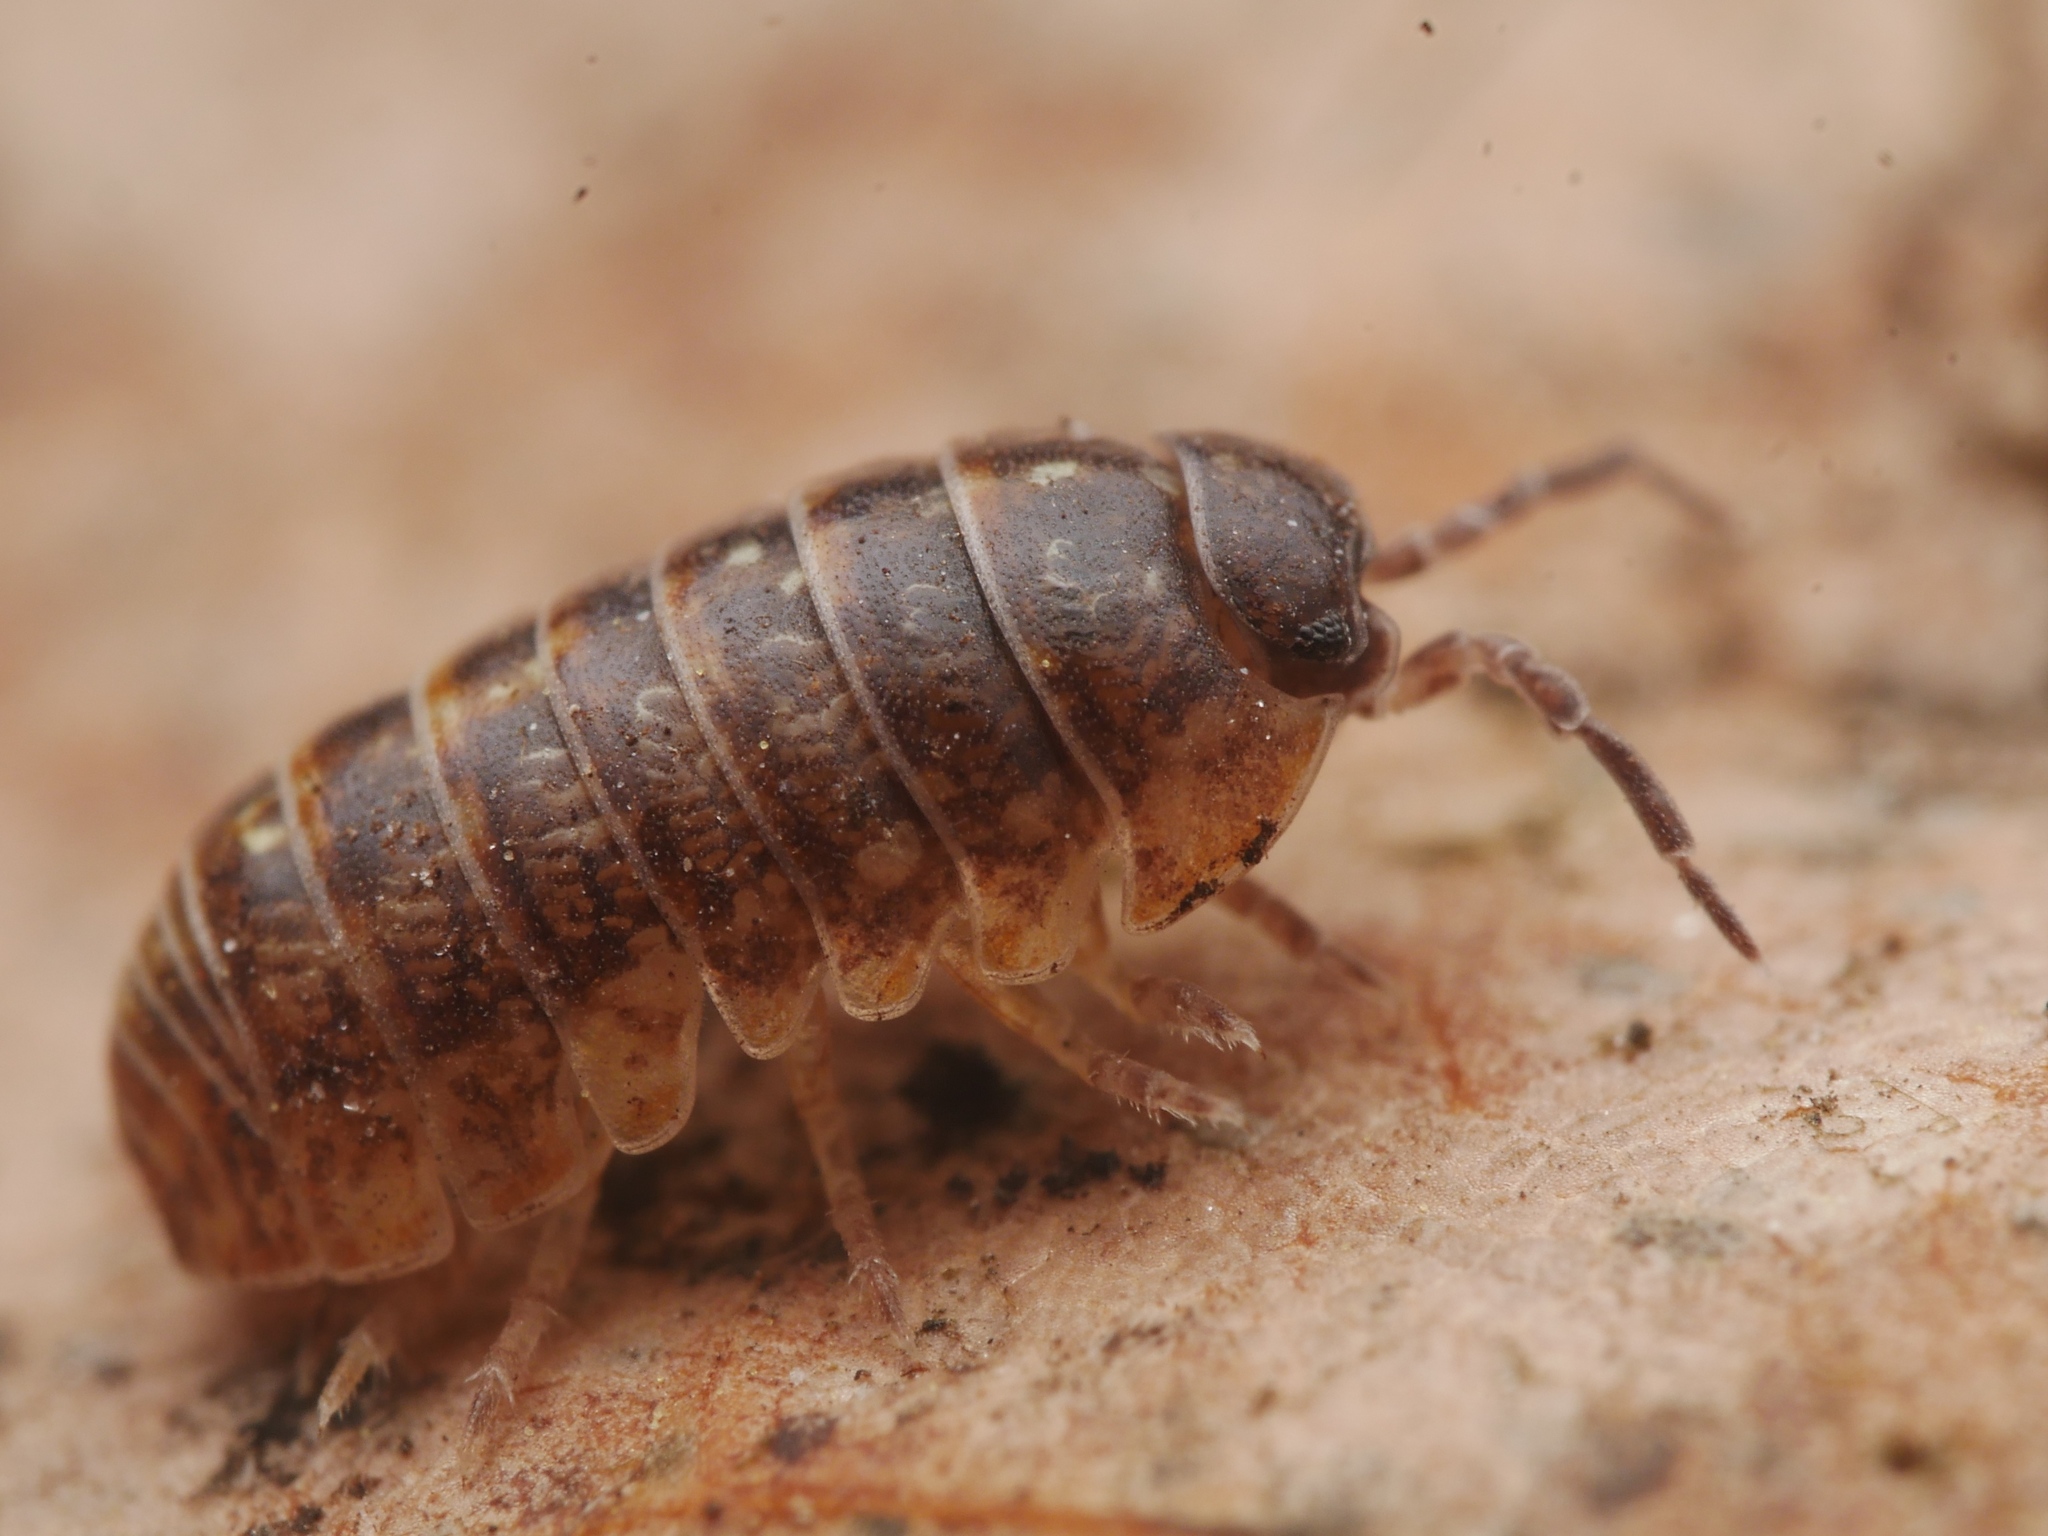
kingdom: Animalia
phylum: Arthropoda
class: Malacostraca
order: Isopoda
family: Armadillidiidae
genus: Armadillidium
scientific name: Armadillidium vulgare
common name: Common pill woodlouse
